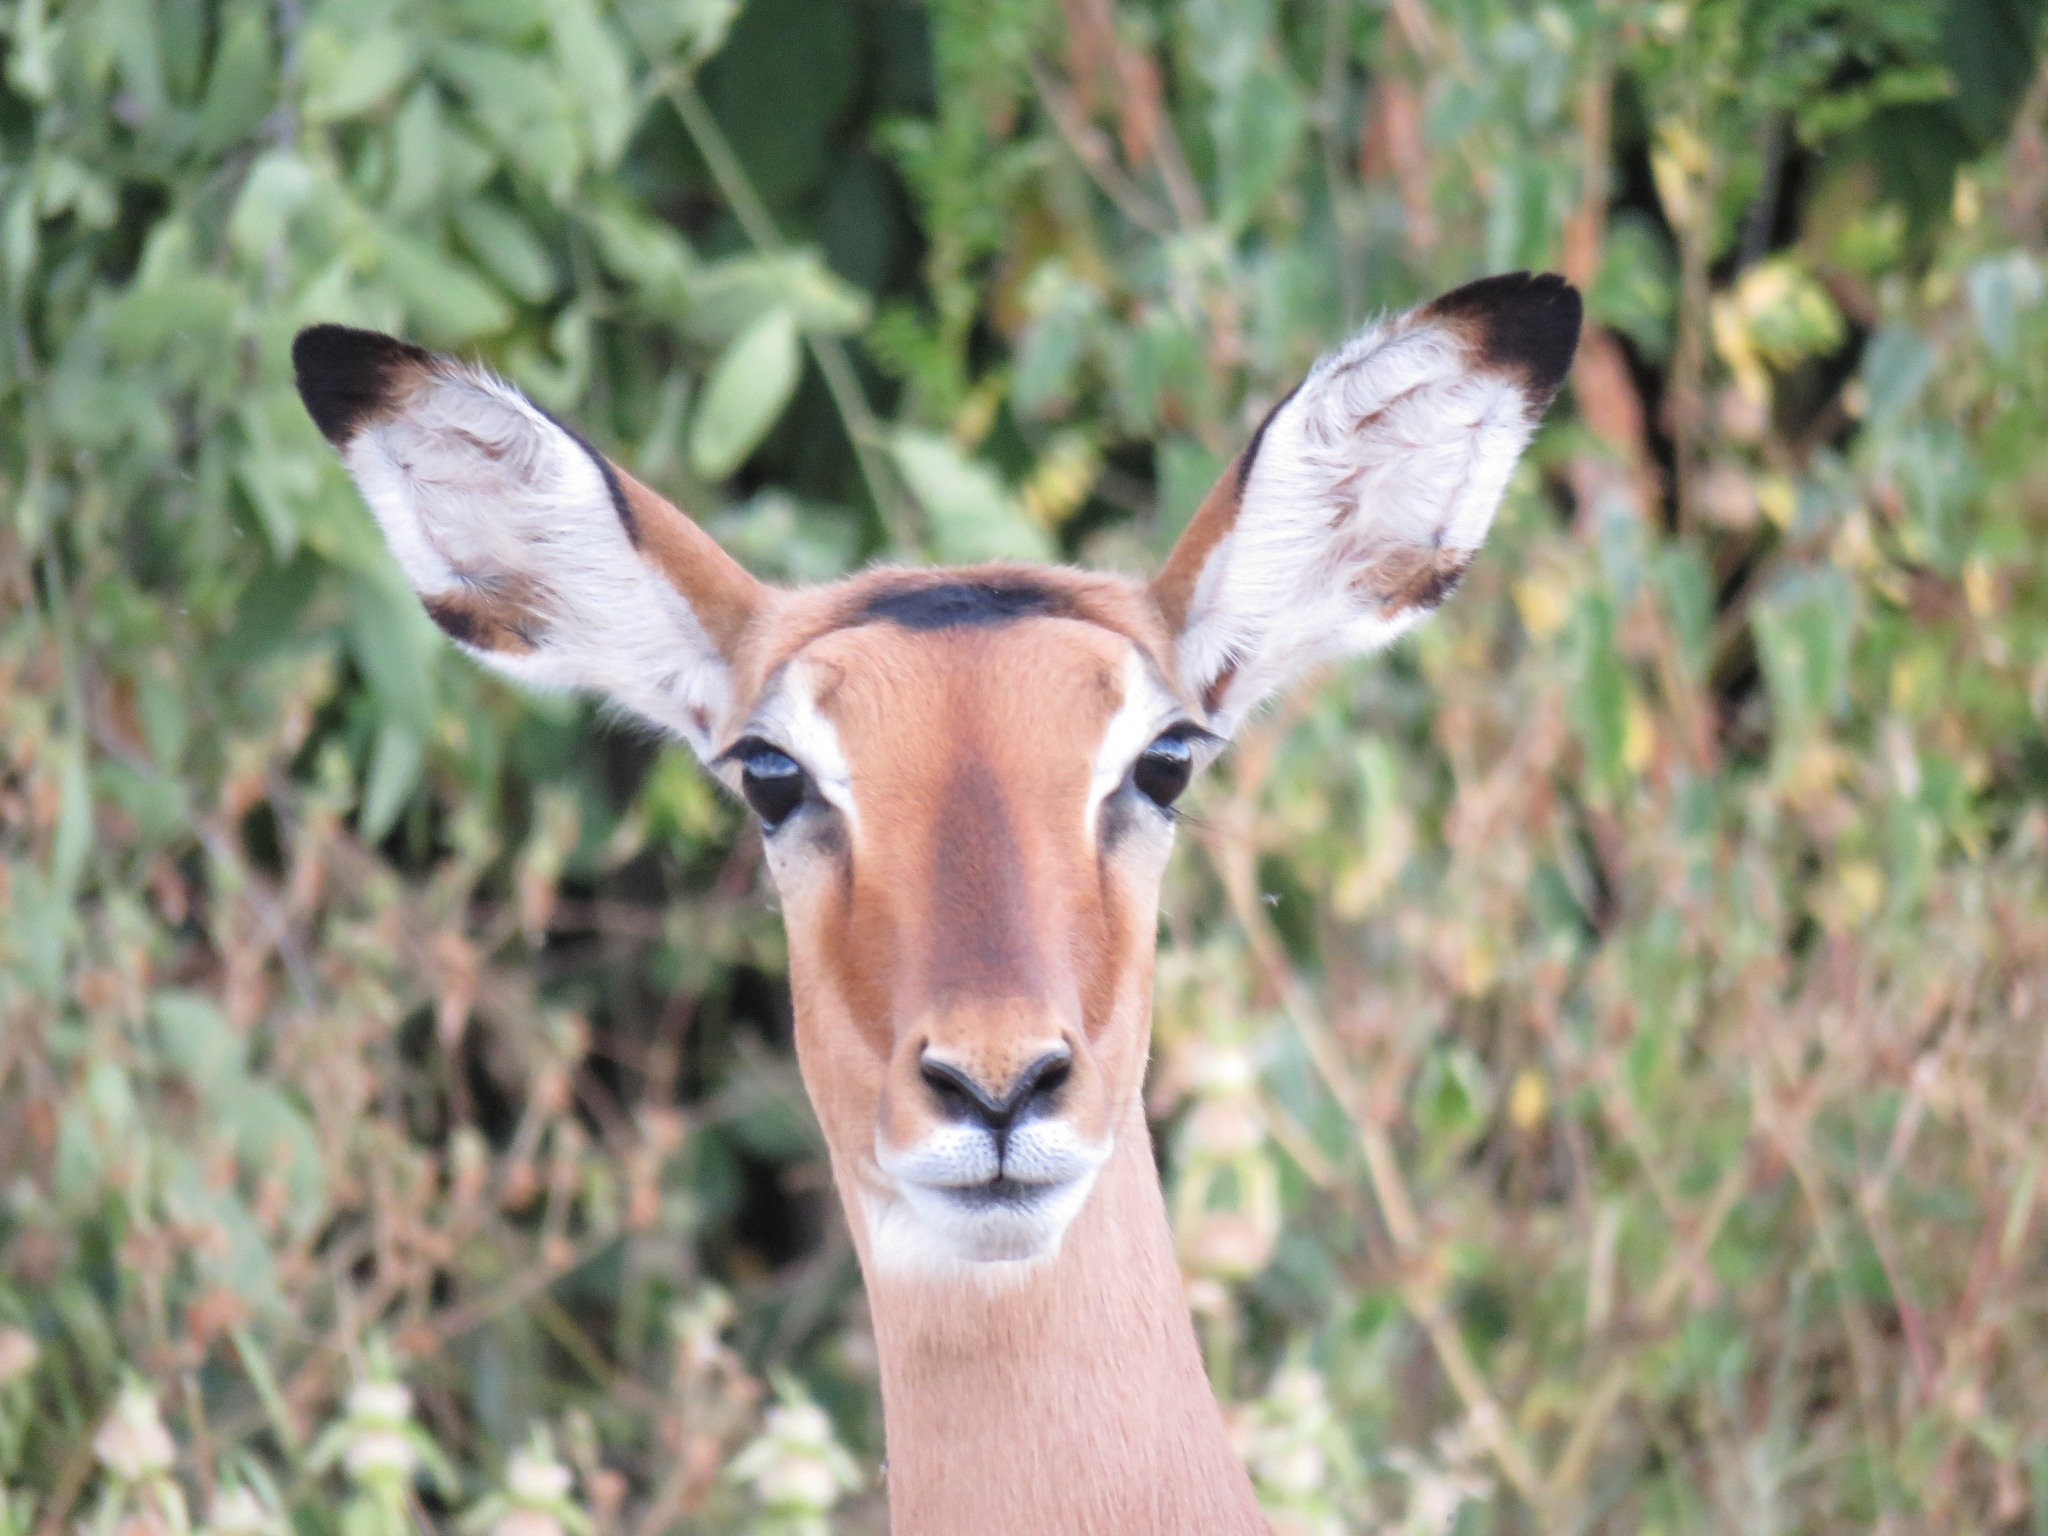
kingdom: Animalia
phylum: Chordata
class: Mammalia
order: Artiodactyla
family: Bovidae
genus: Aepyceros
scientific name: Aepyceros melampus
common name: Impala
